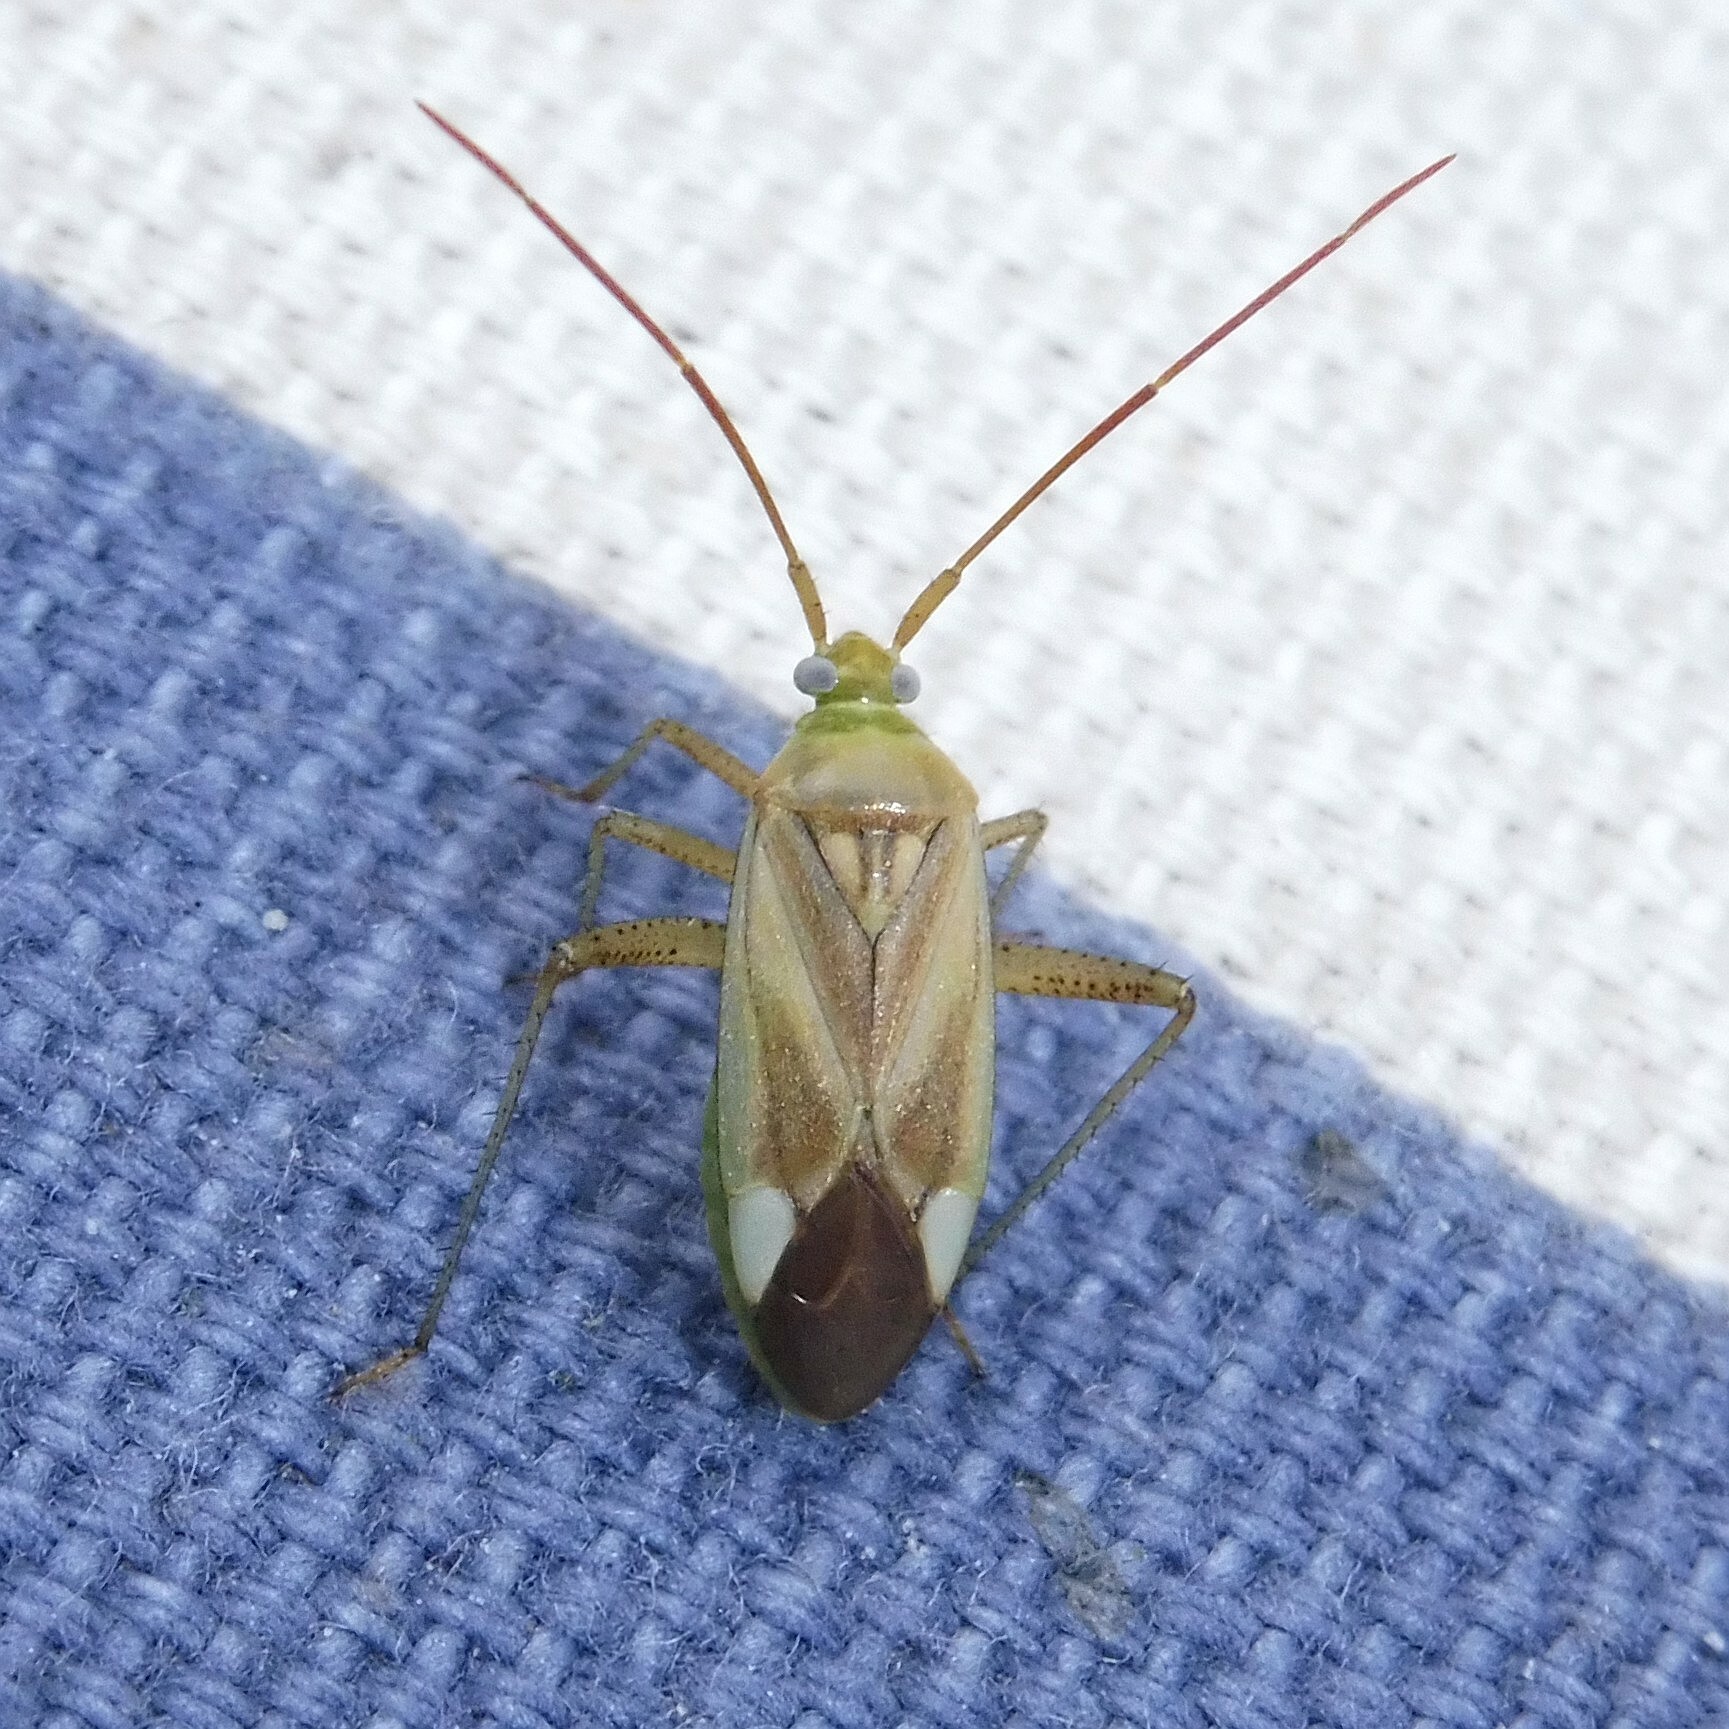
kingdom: Animalia
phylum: Arthropoda
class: Insecta
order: Hemiptera
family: Miridae
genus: Adelphocoris
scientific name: Adelphocoris lineolatus
